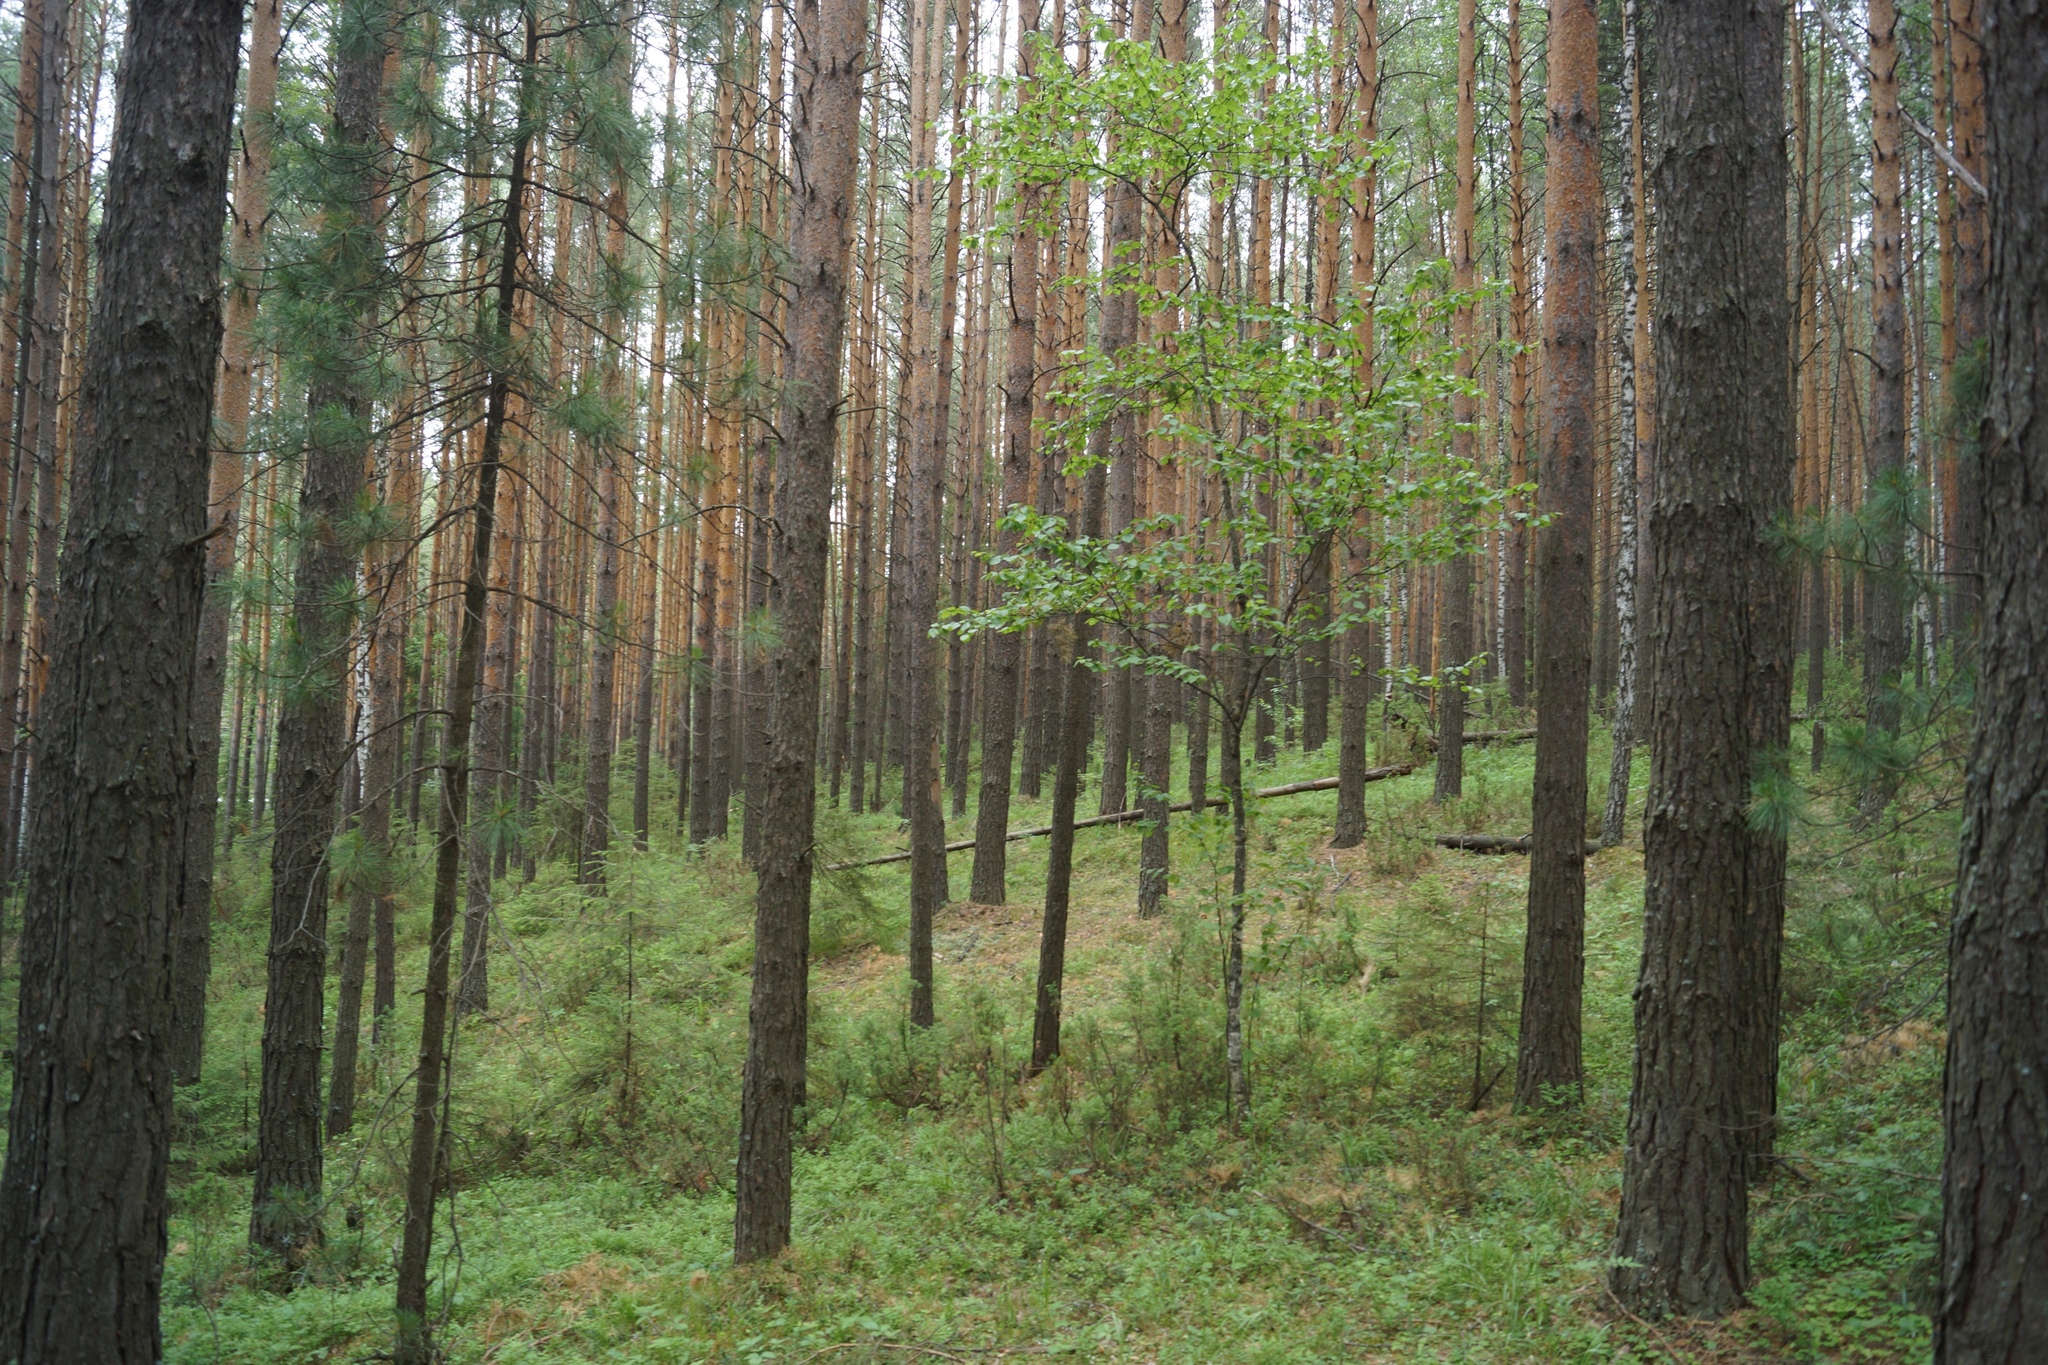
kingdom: Plantae
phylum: Tracheophyta
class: Pinopsida
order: Pinales
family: Pinaceae
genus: Pinus
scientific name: Pinus sylvestris
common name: Scots pine
